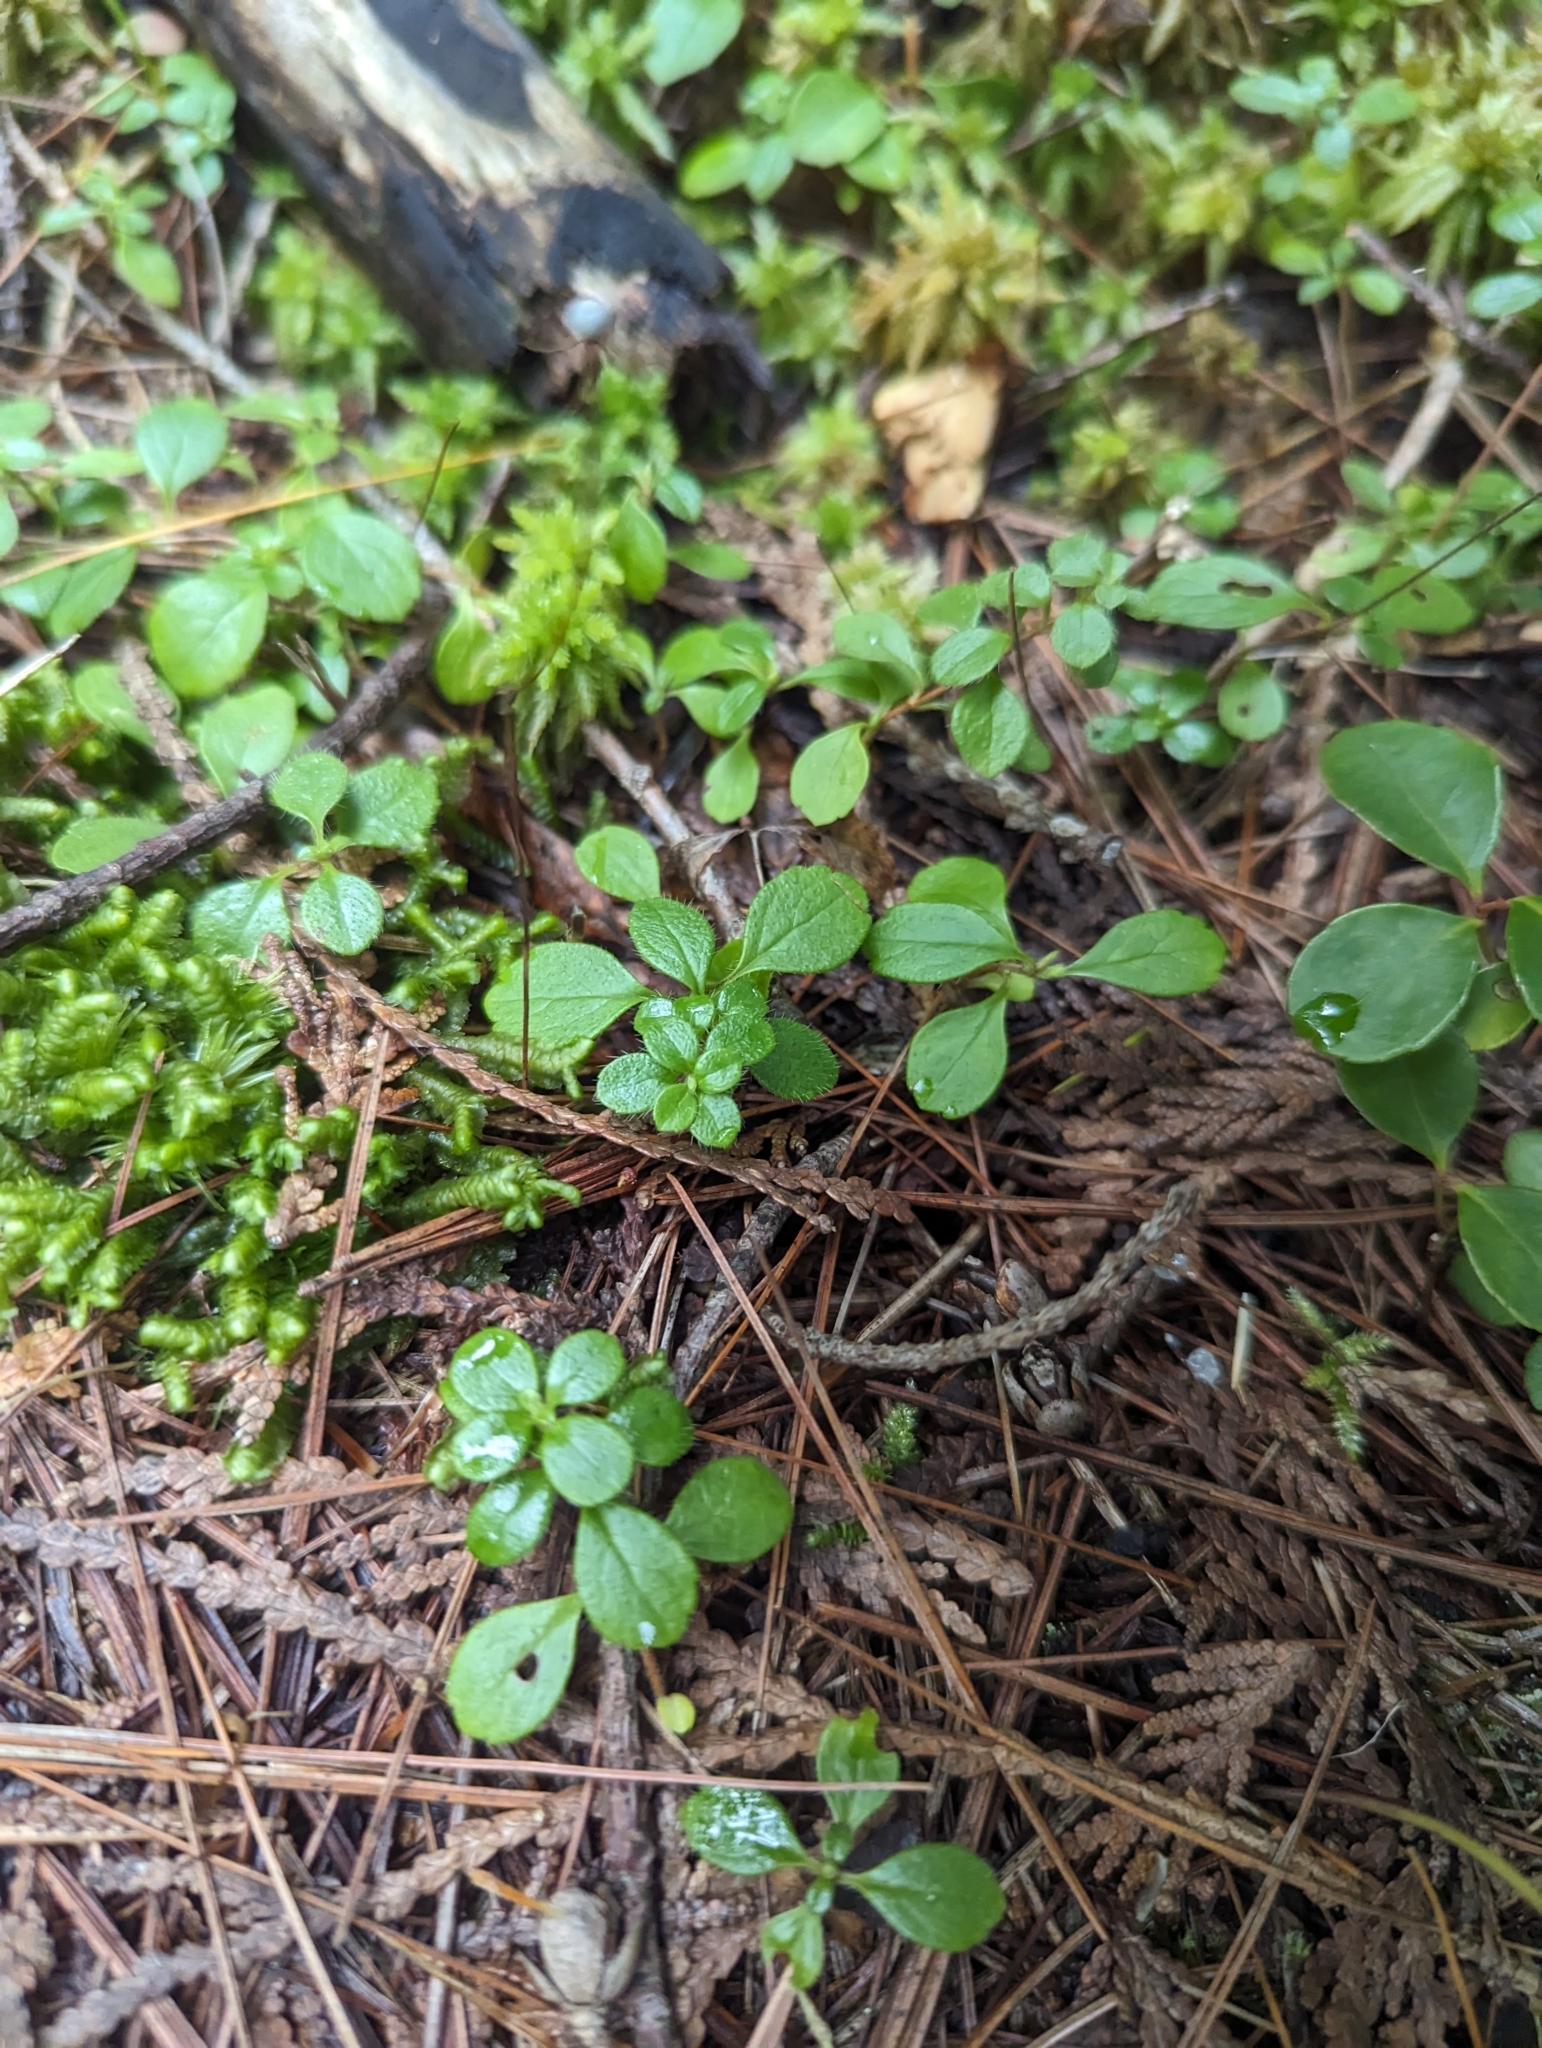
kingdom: Plantae
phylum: Tracheophyta
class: Magnoliopsida
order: Dipsacales
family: Caprifoliaceae
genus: Linnaea
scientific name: Linnaea borealis
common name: Twinflower
